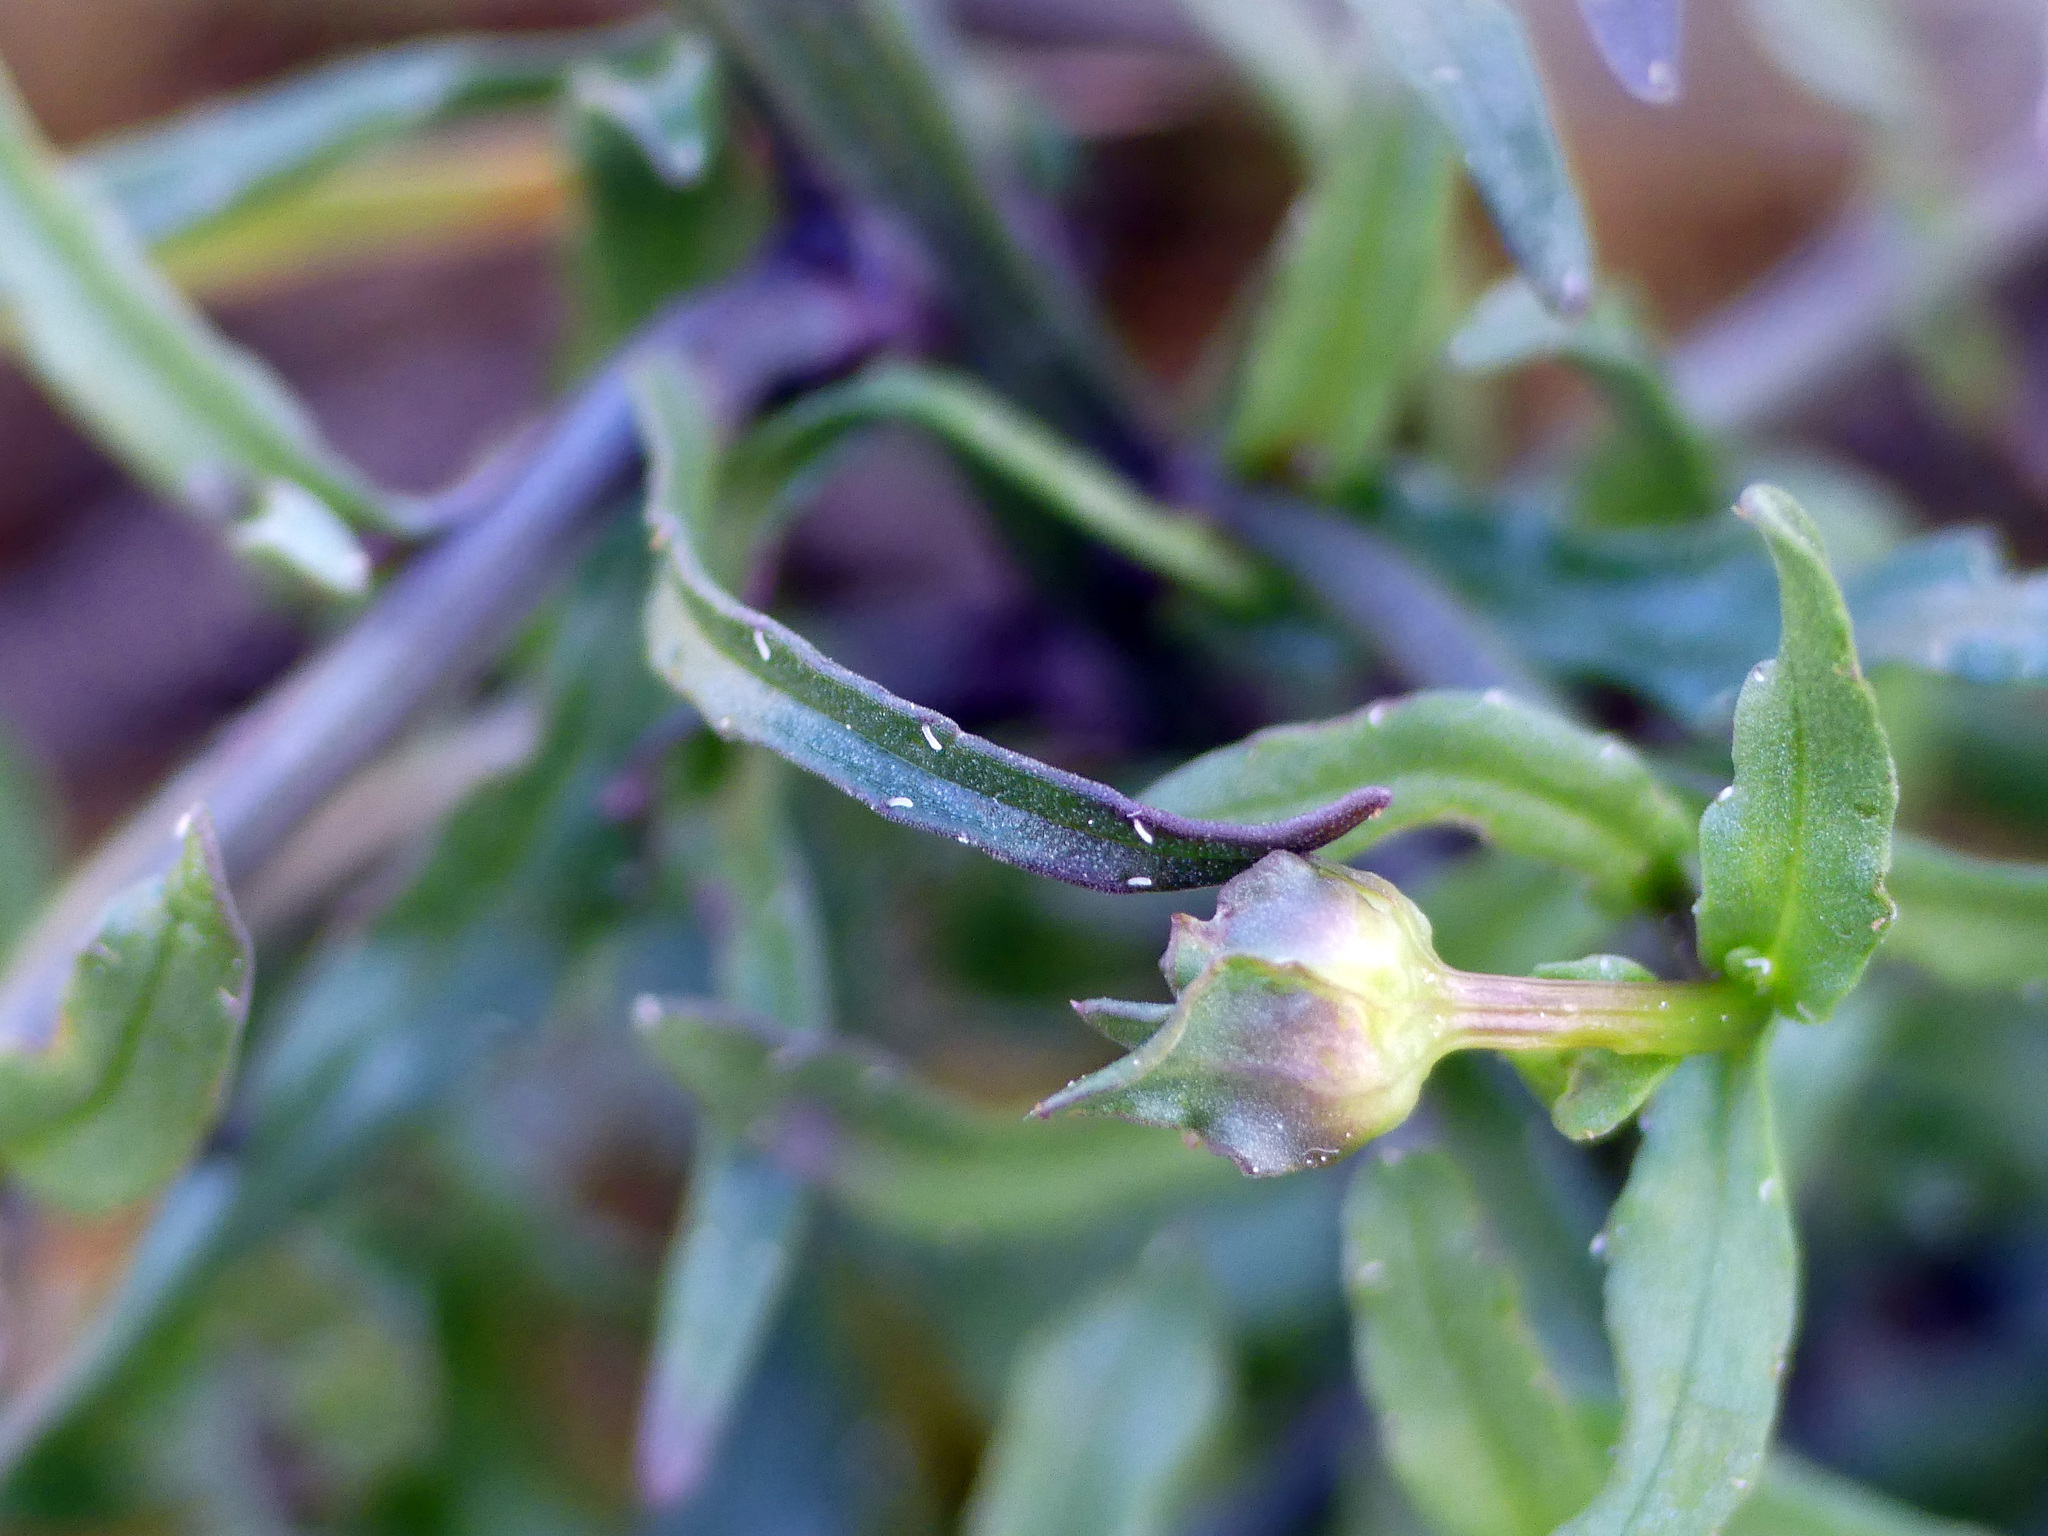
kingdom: Plantae
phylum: Tracheophyta
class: Magnoliopsida
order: Asterales
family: Campanulaceae
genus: Jasione
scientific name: Jasione montana
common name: Sheep's-bit
